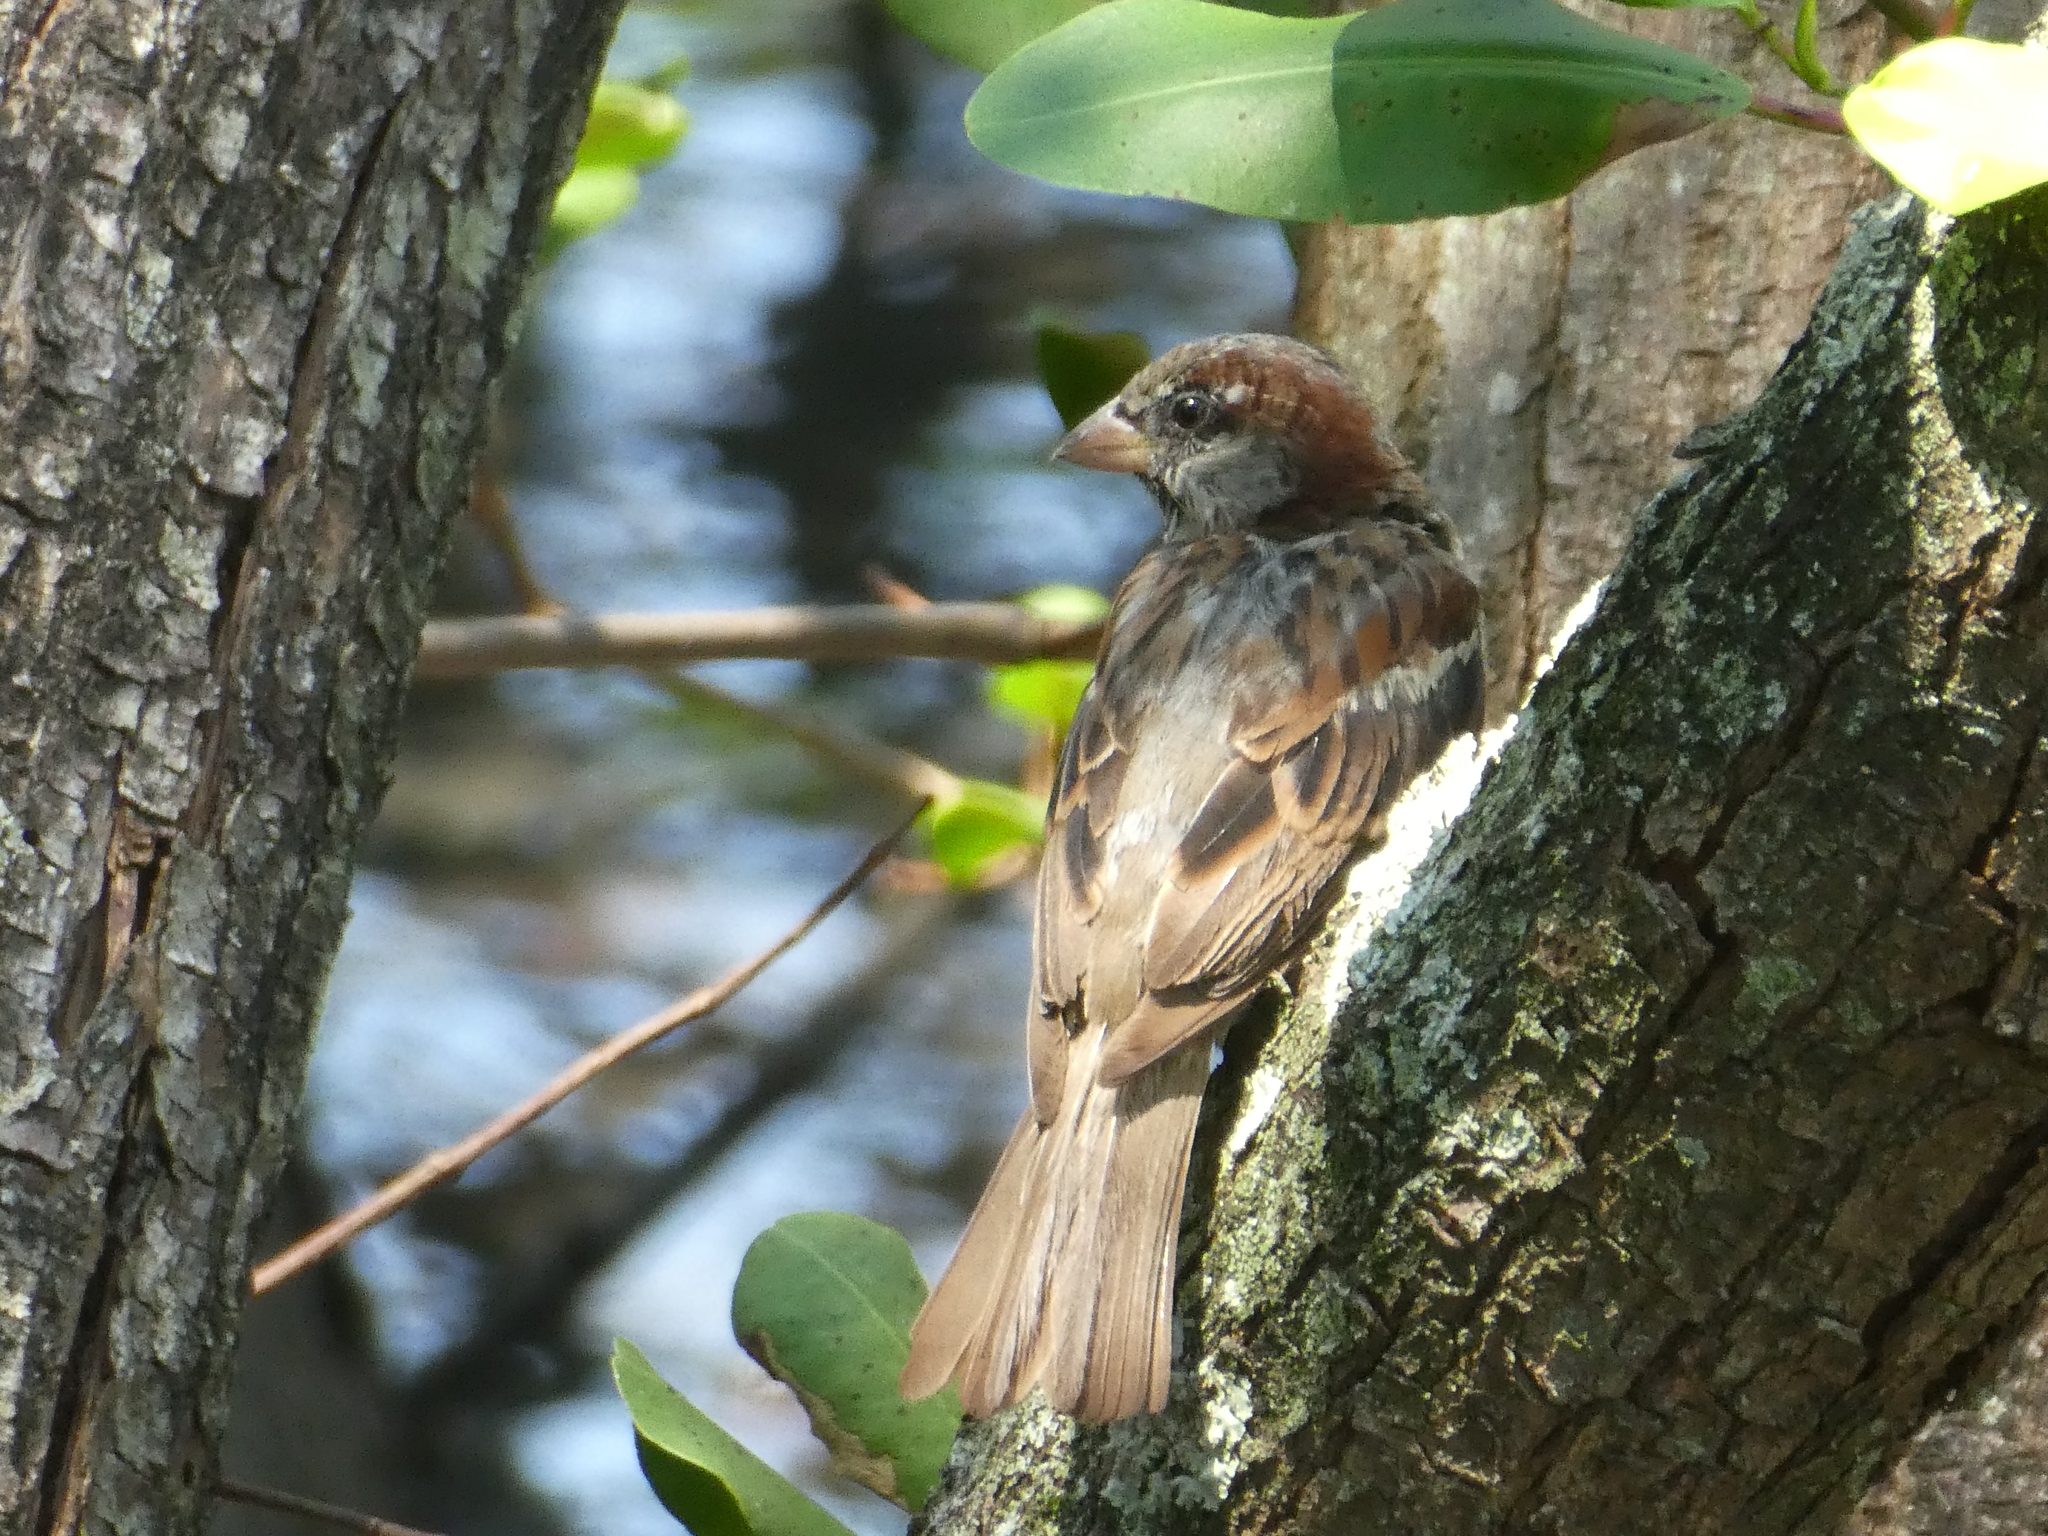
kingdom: Animalia
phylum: Chordata
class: Aves
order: Passeriformes
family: Passeridae
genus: Passer
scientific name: Passer domesticus
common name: House sparrow
